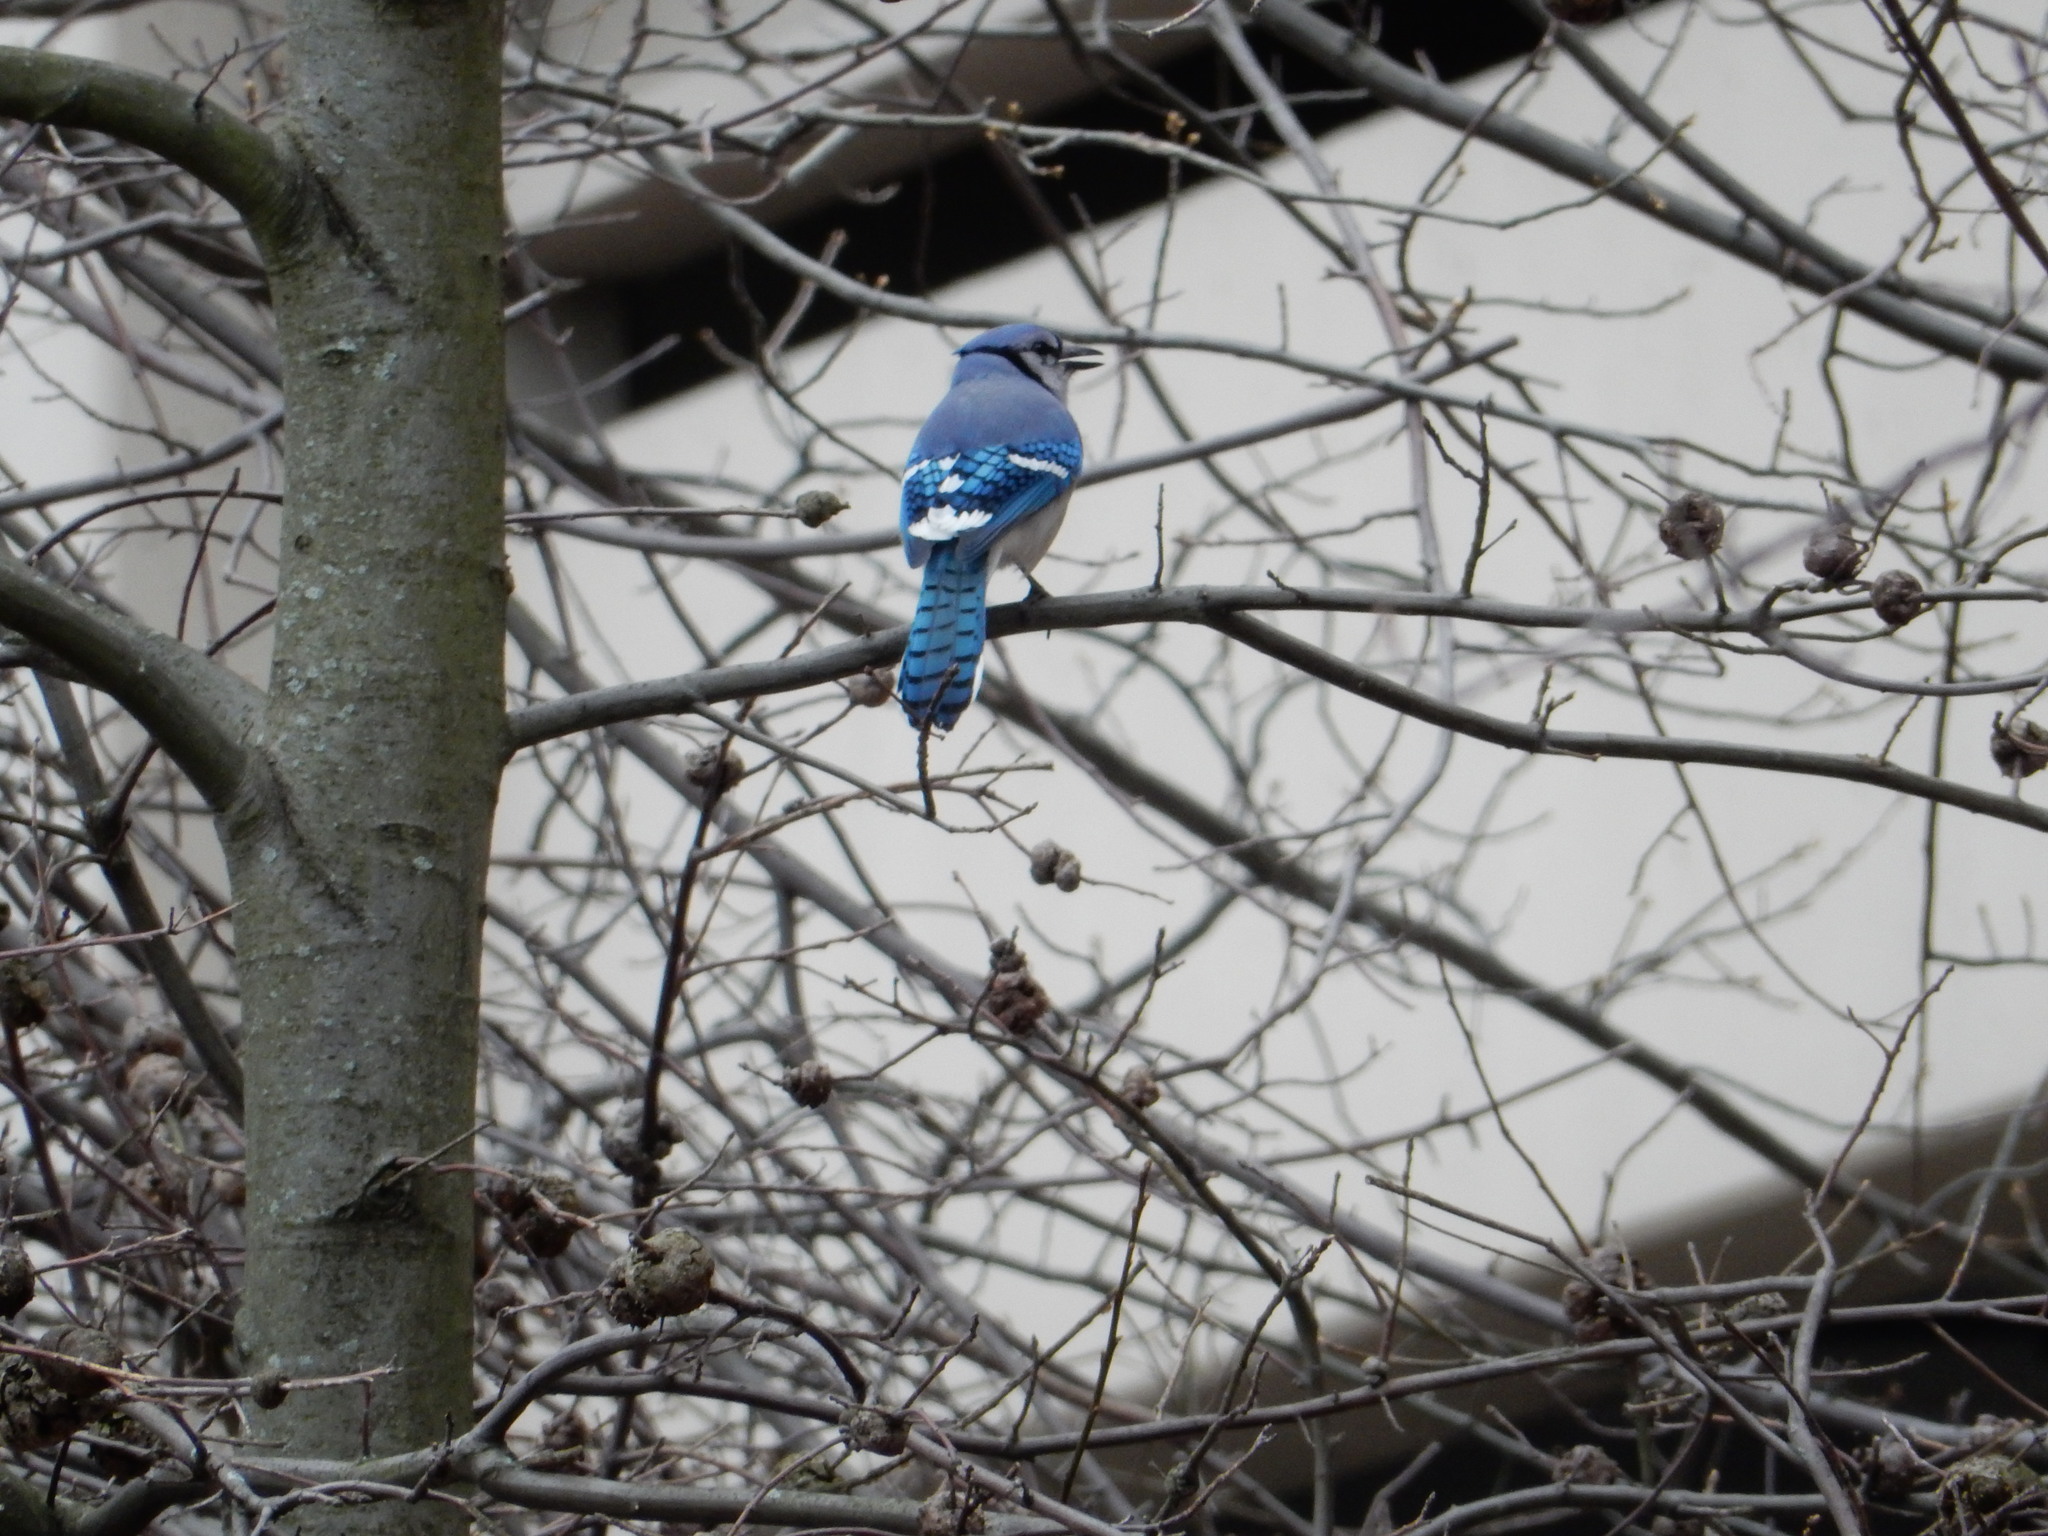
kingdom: Animalia
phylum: Chordata
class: Aves
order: Passeriformes
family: Corvidae
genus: Cyanocitta
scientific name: Cyanocitta cristata
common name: Blue jay
